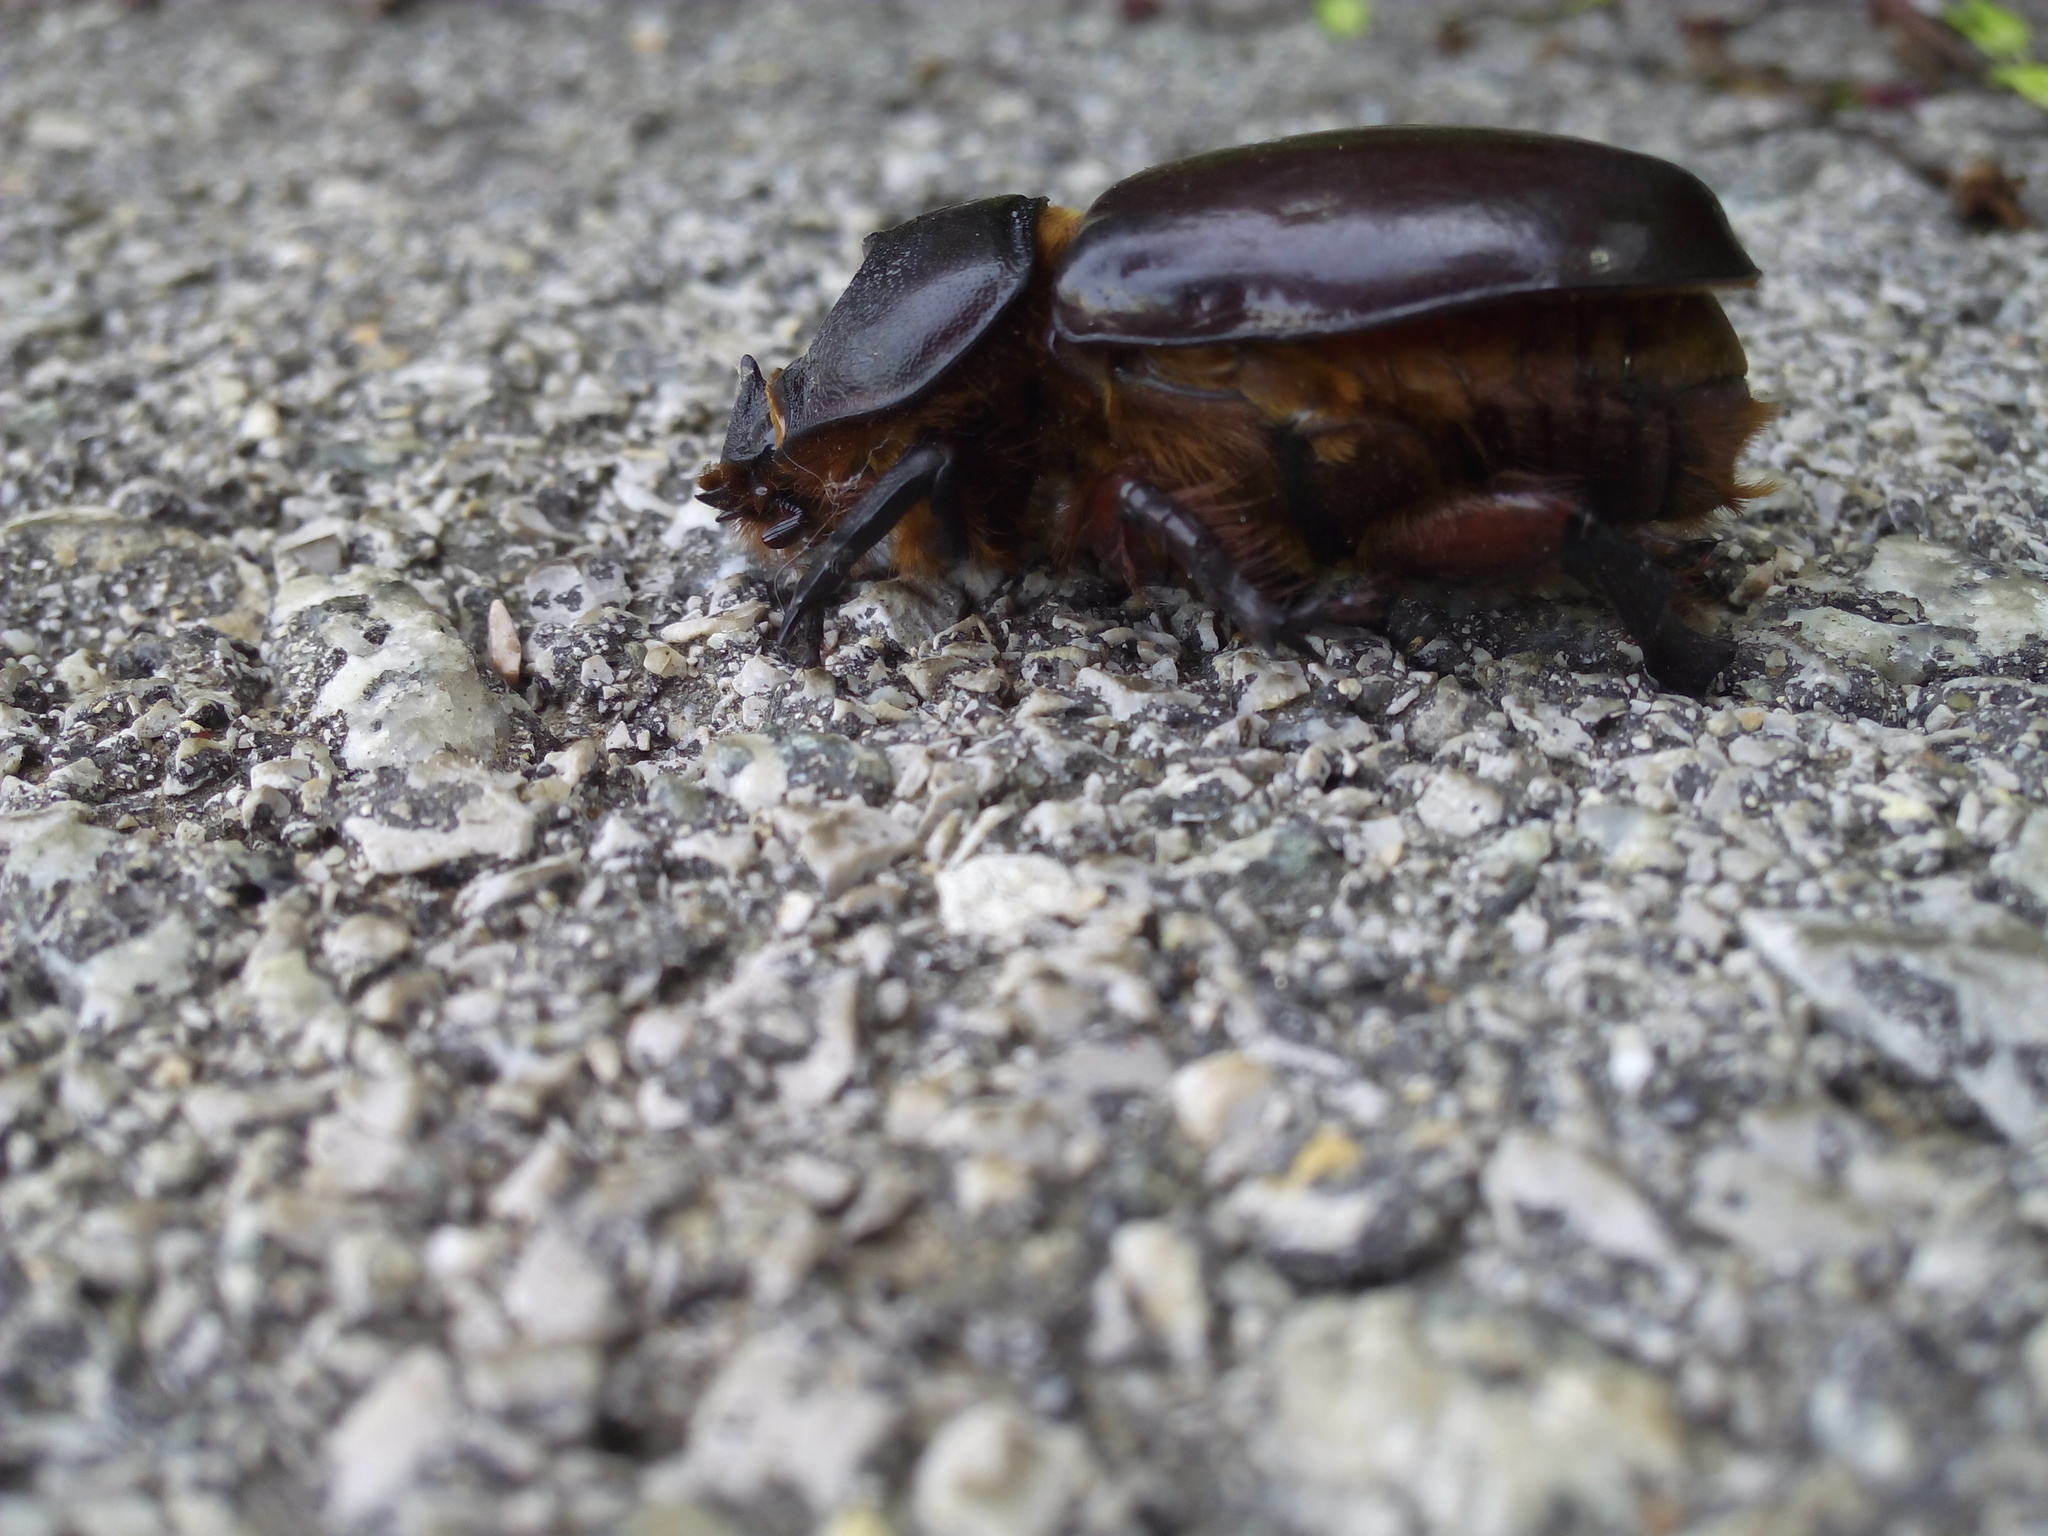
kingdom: Animalia
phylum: Arthropoda
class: Insecta
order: Coleoptera
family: Scarabaeidae
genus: Oryctes
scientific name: Oryctes nasicornis
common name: European rhinoceros beetle
